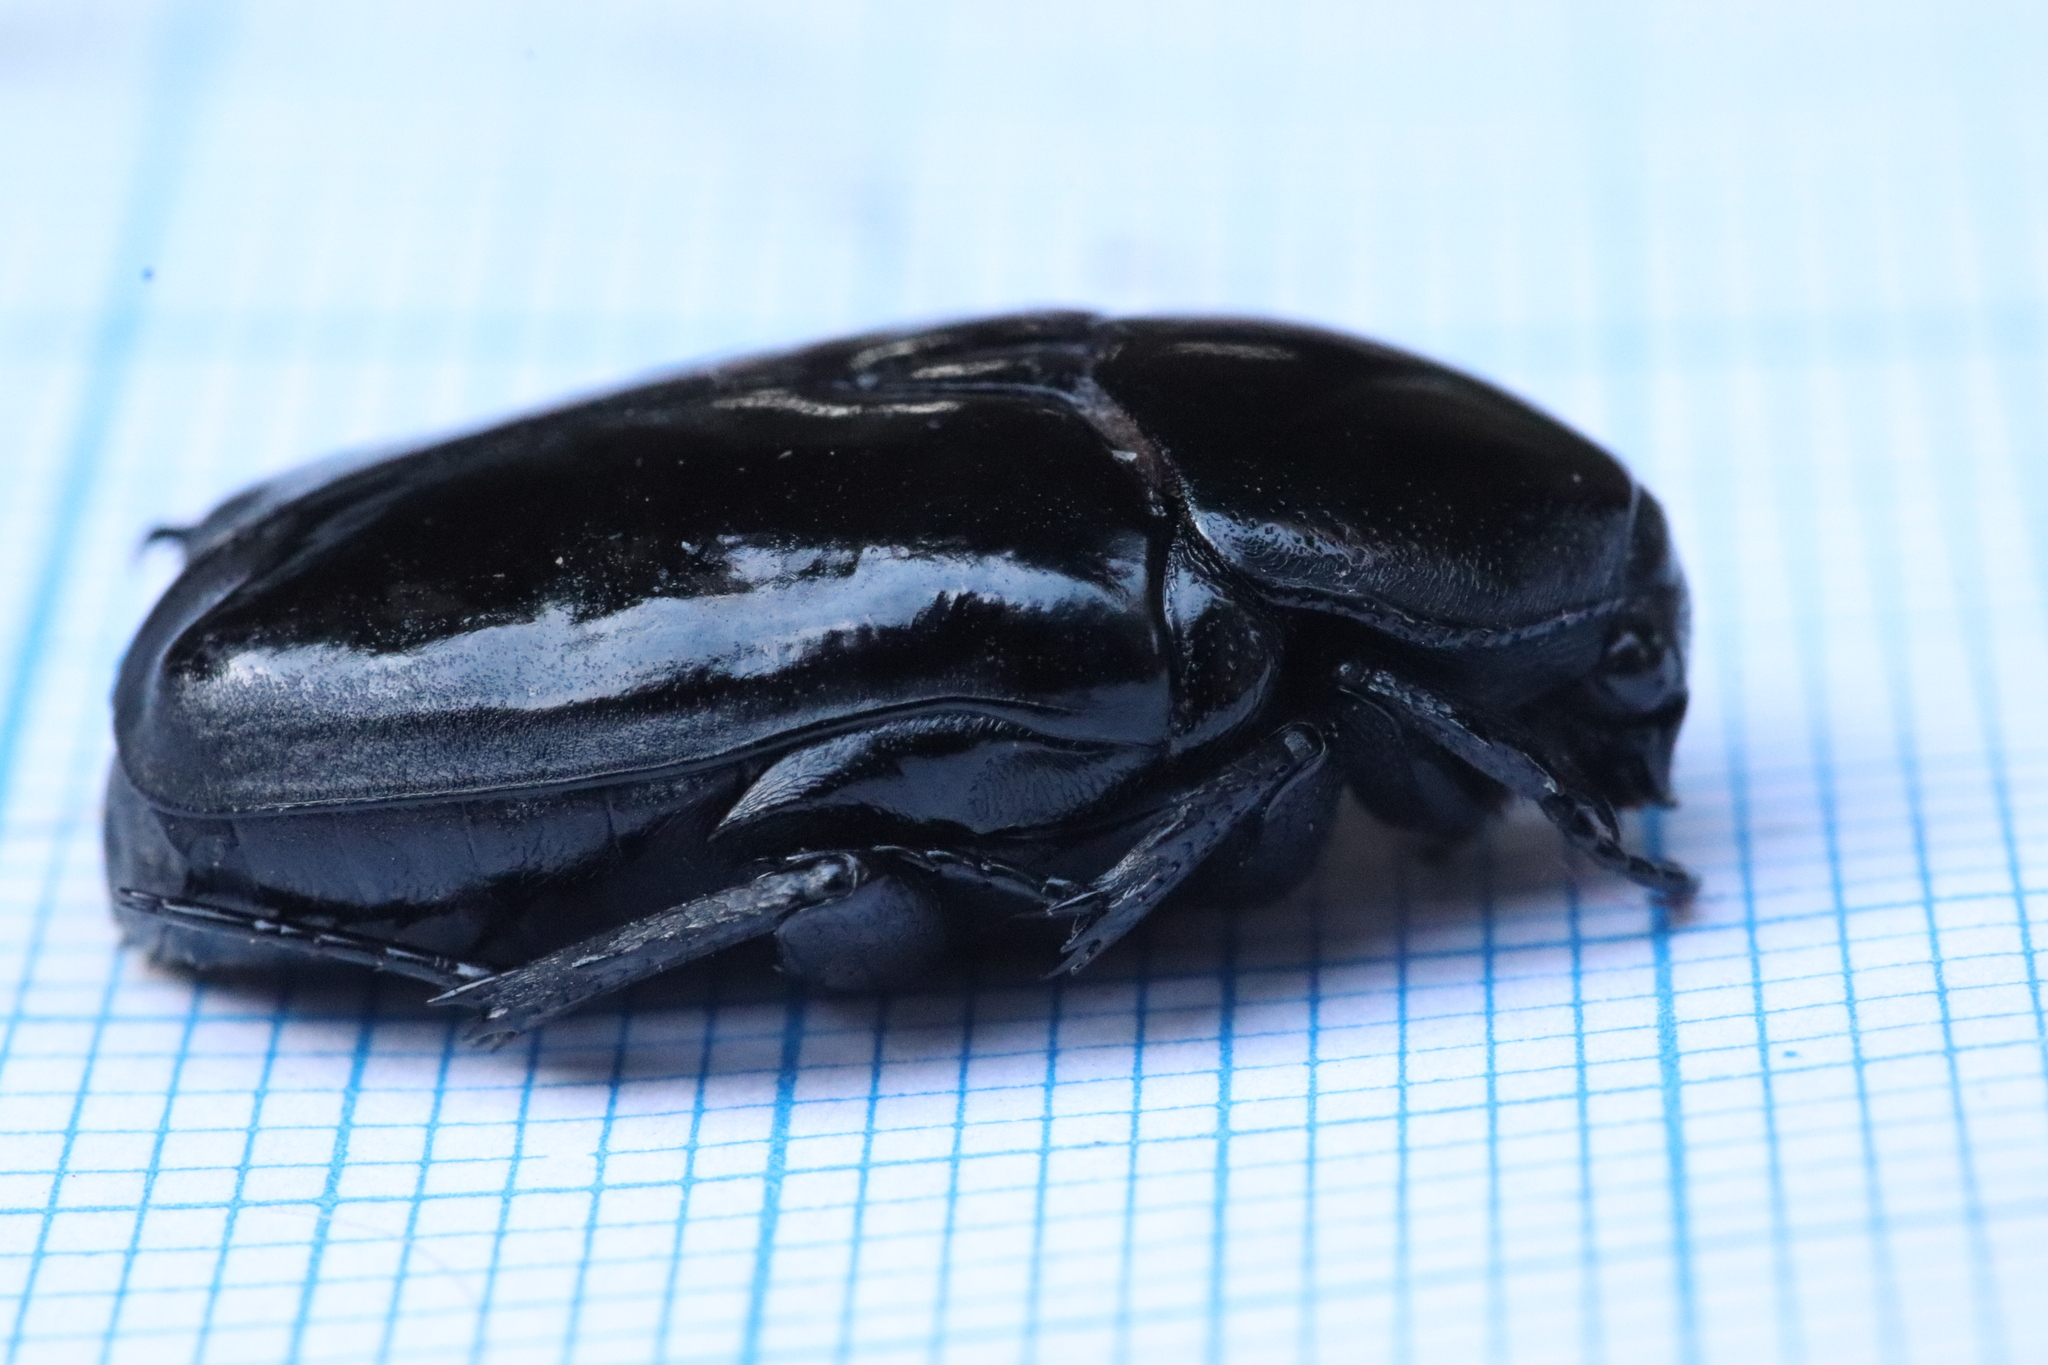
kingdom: Animalia
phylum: Arthropoda
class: Insecta
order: Coleoptera
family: Scarabaeidae
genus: Diplognatha
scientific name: Diplognatha gagates
